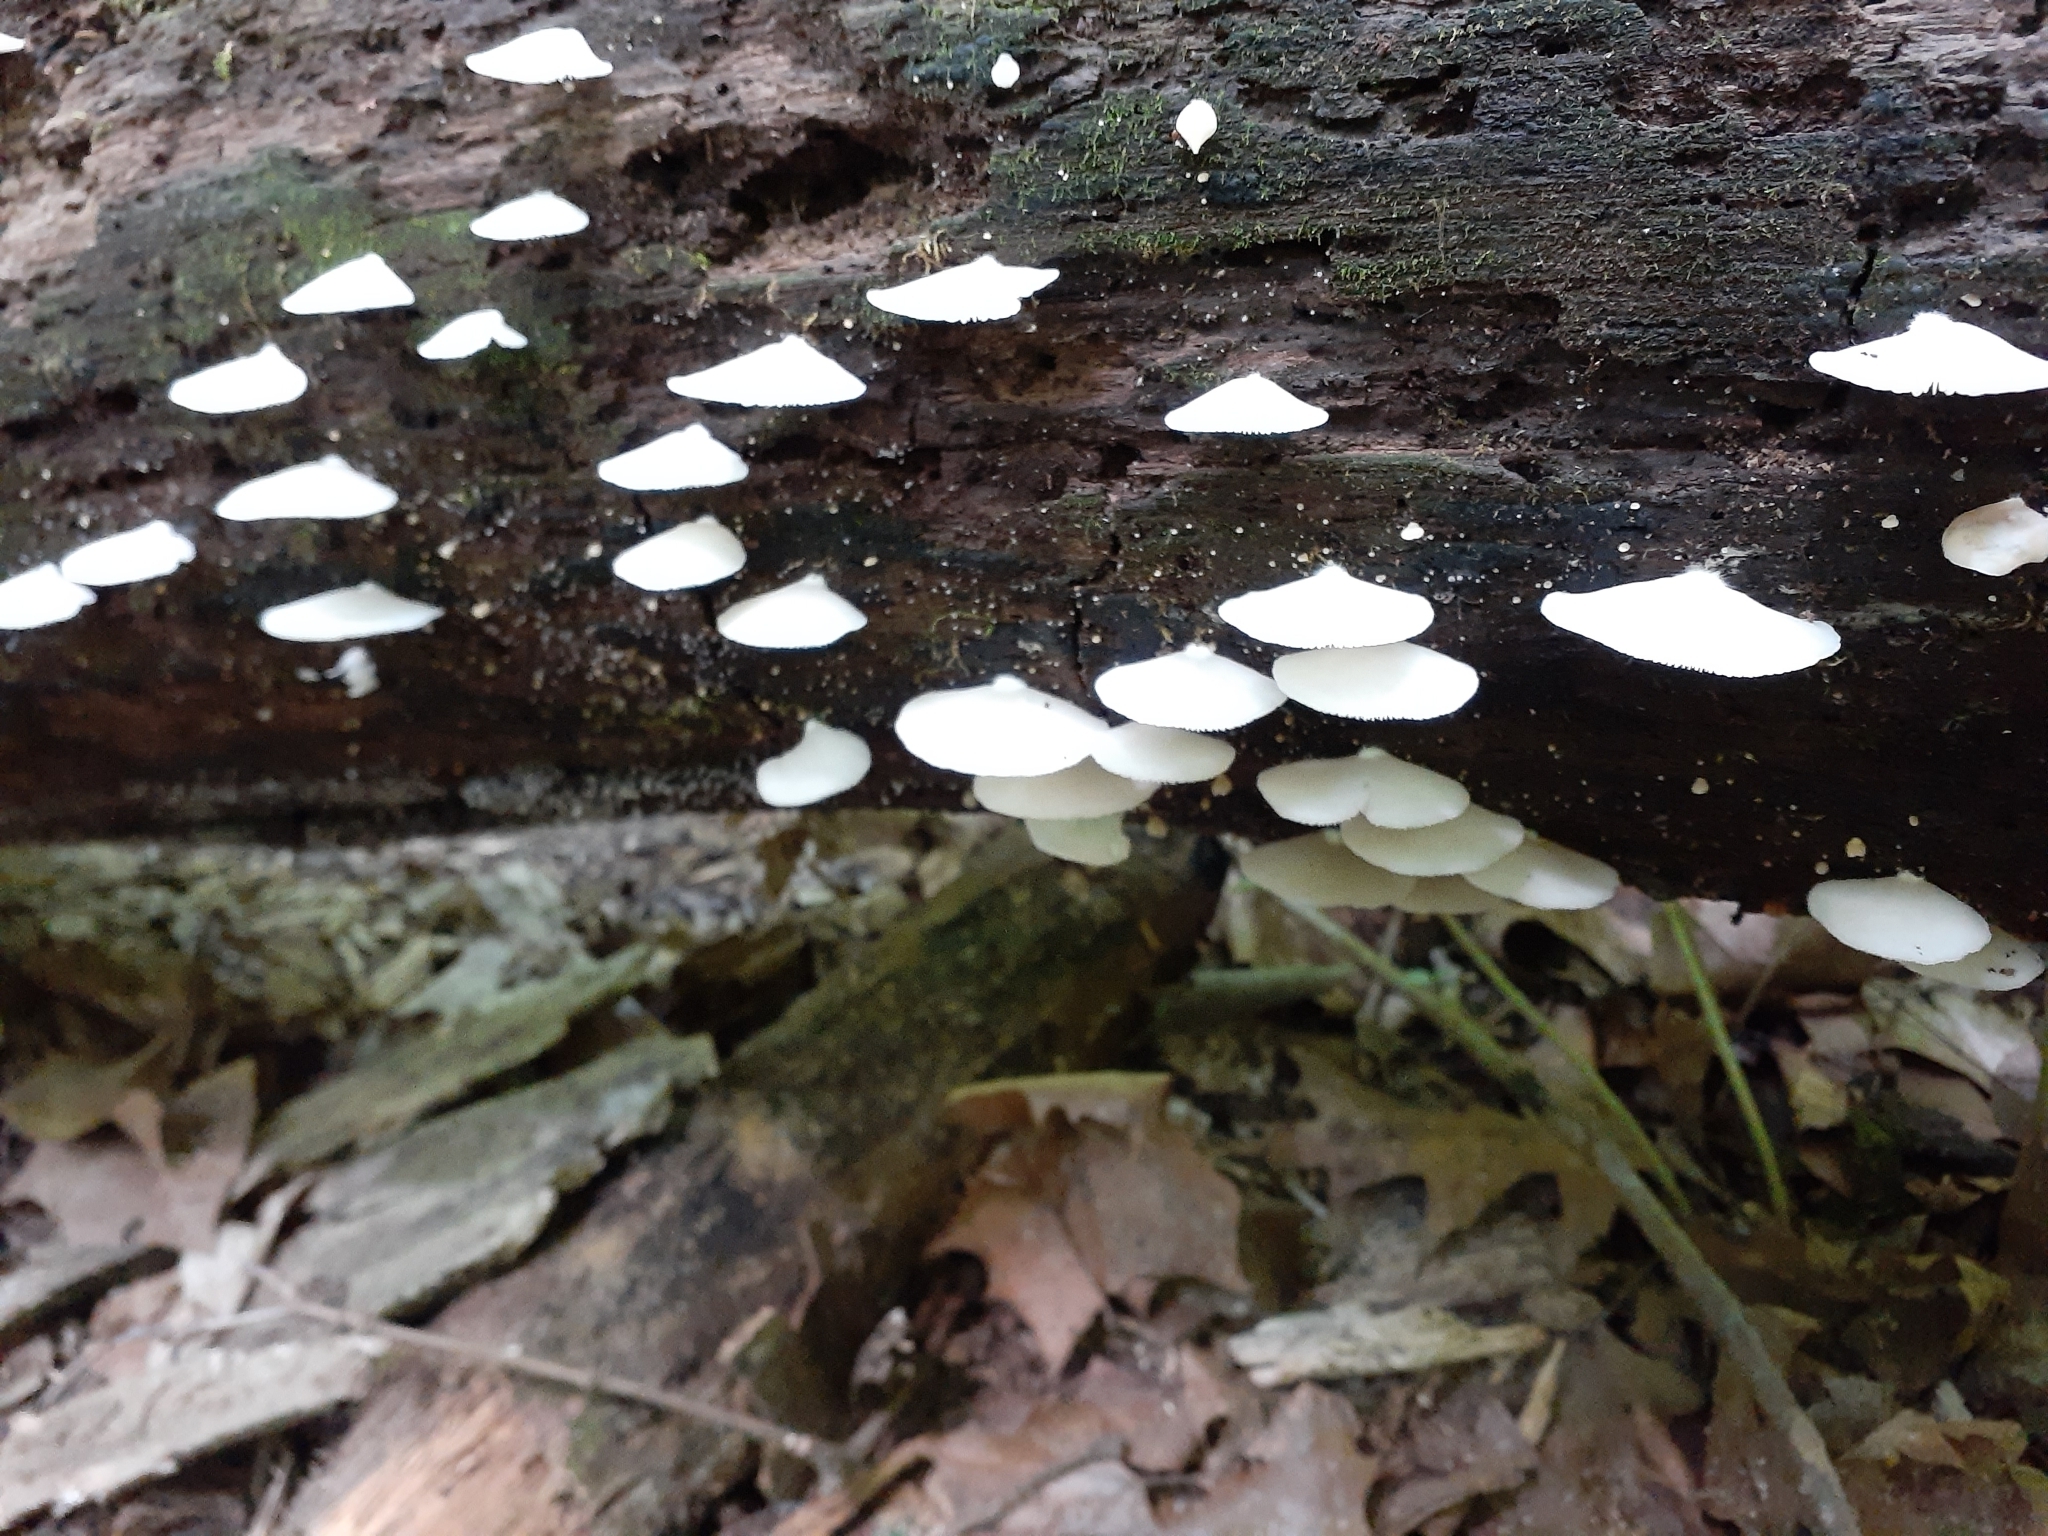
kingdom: Fungi
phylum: Basidiomycota
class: Agaricomycetes
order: Agaricales
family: Crepidotaceae
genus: Crepidotus
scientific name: Crepidotus applanatus
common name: Flat crep
